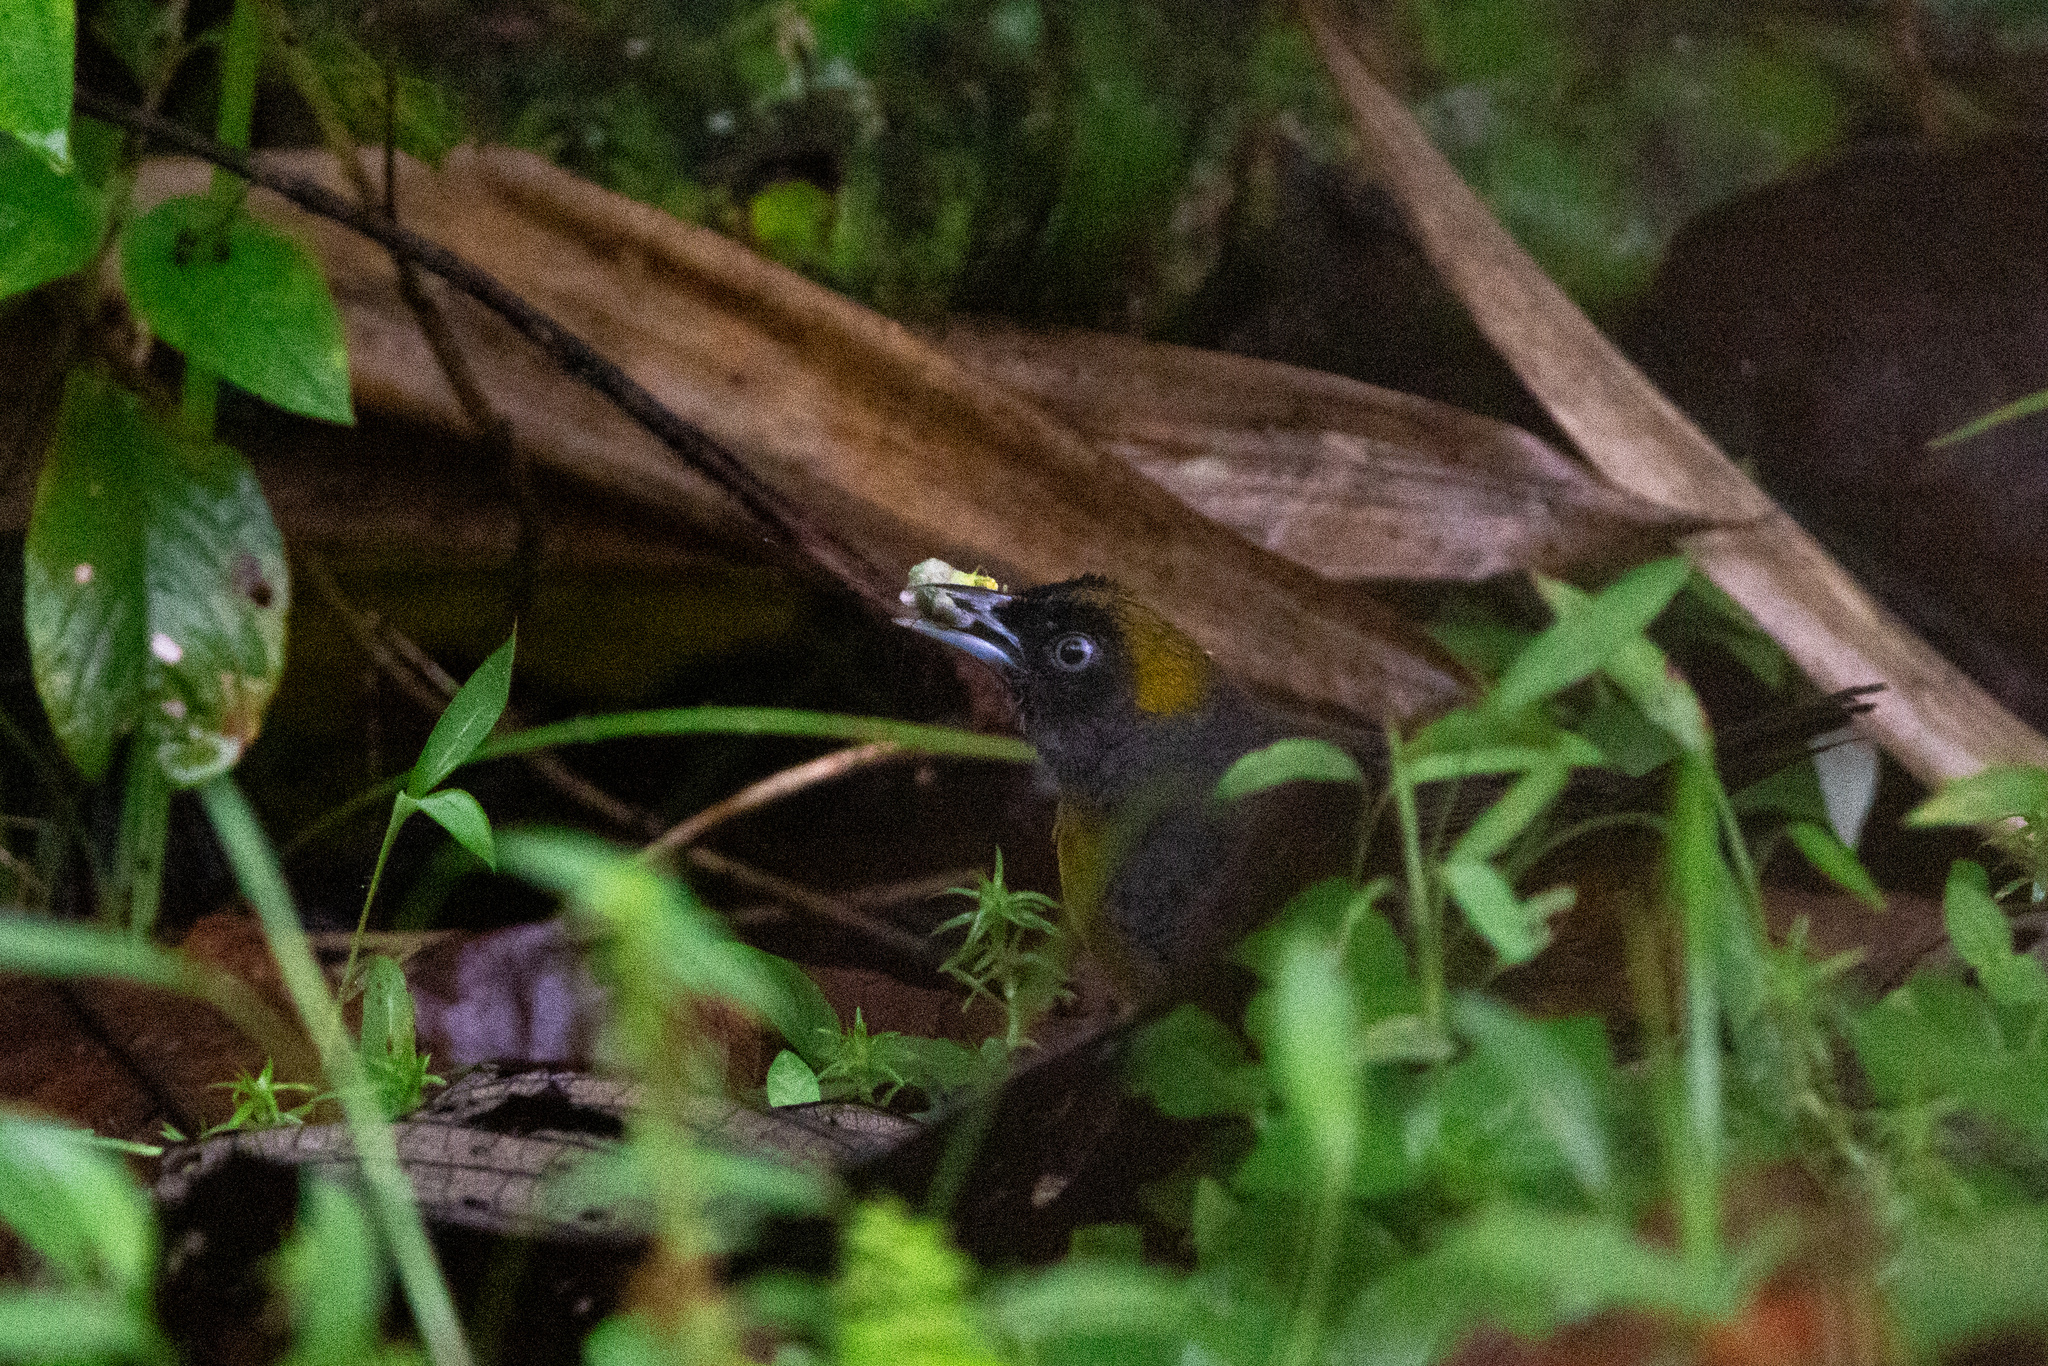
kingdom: Animalia
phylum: Chordata
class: Aves
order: Passeriformes
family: Mitrospingidae
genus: Mitrospingus
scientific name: Mitrospingus cassinii
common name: Dusky-faced tanager
